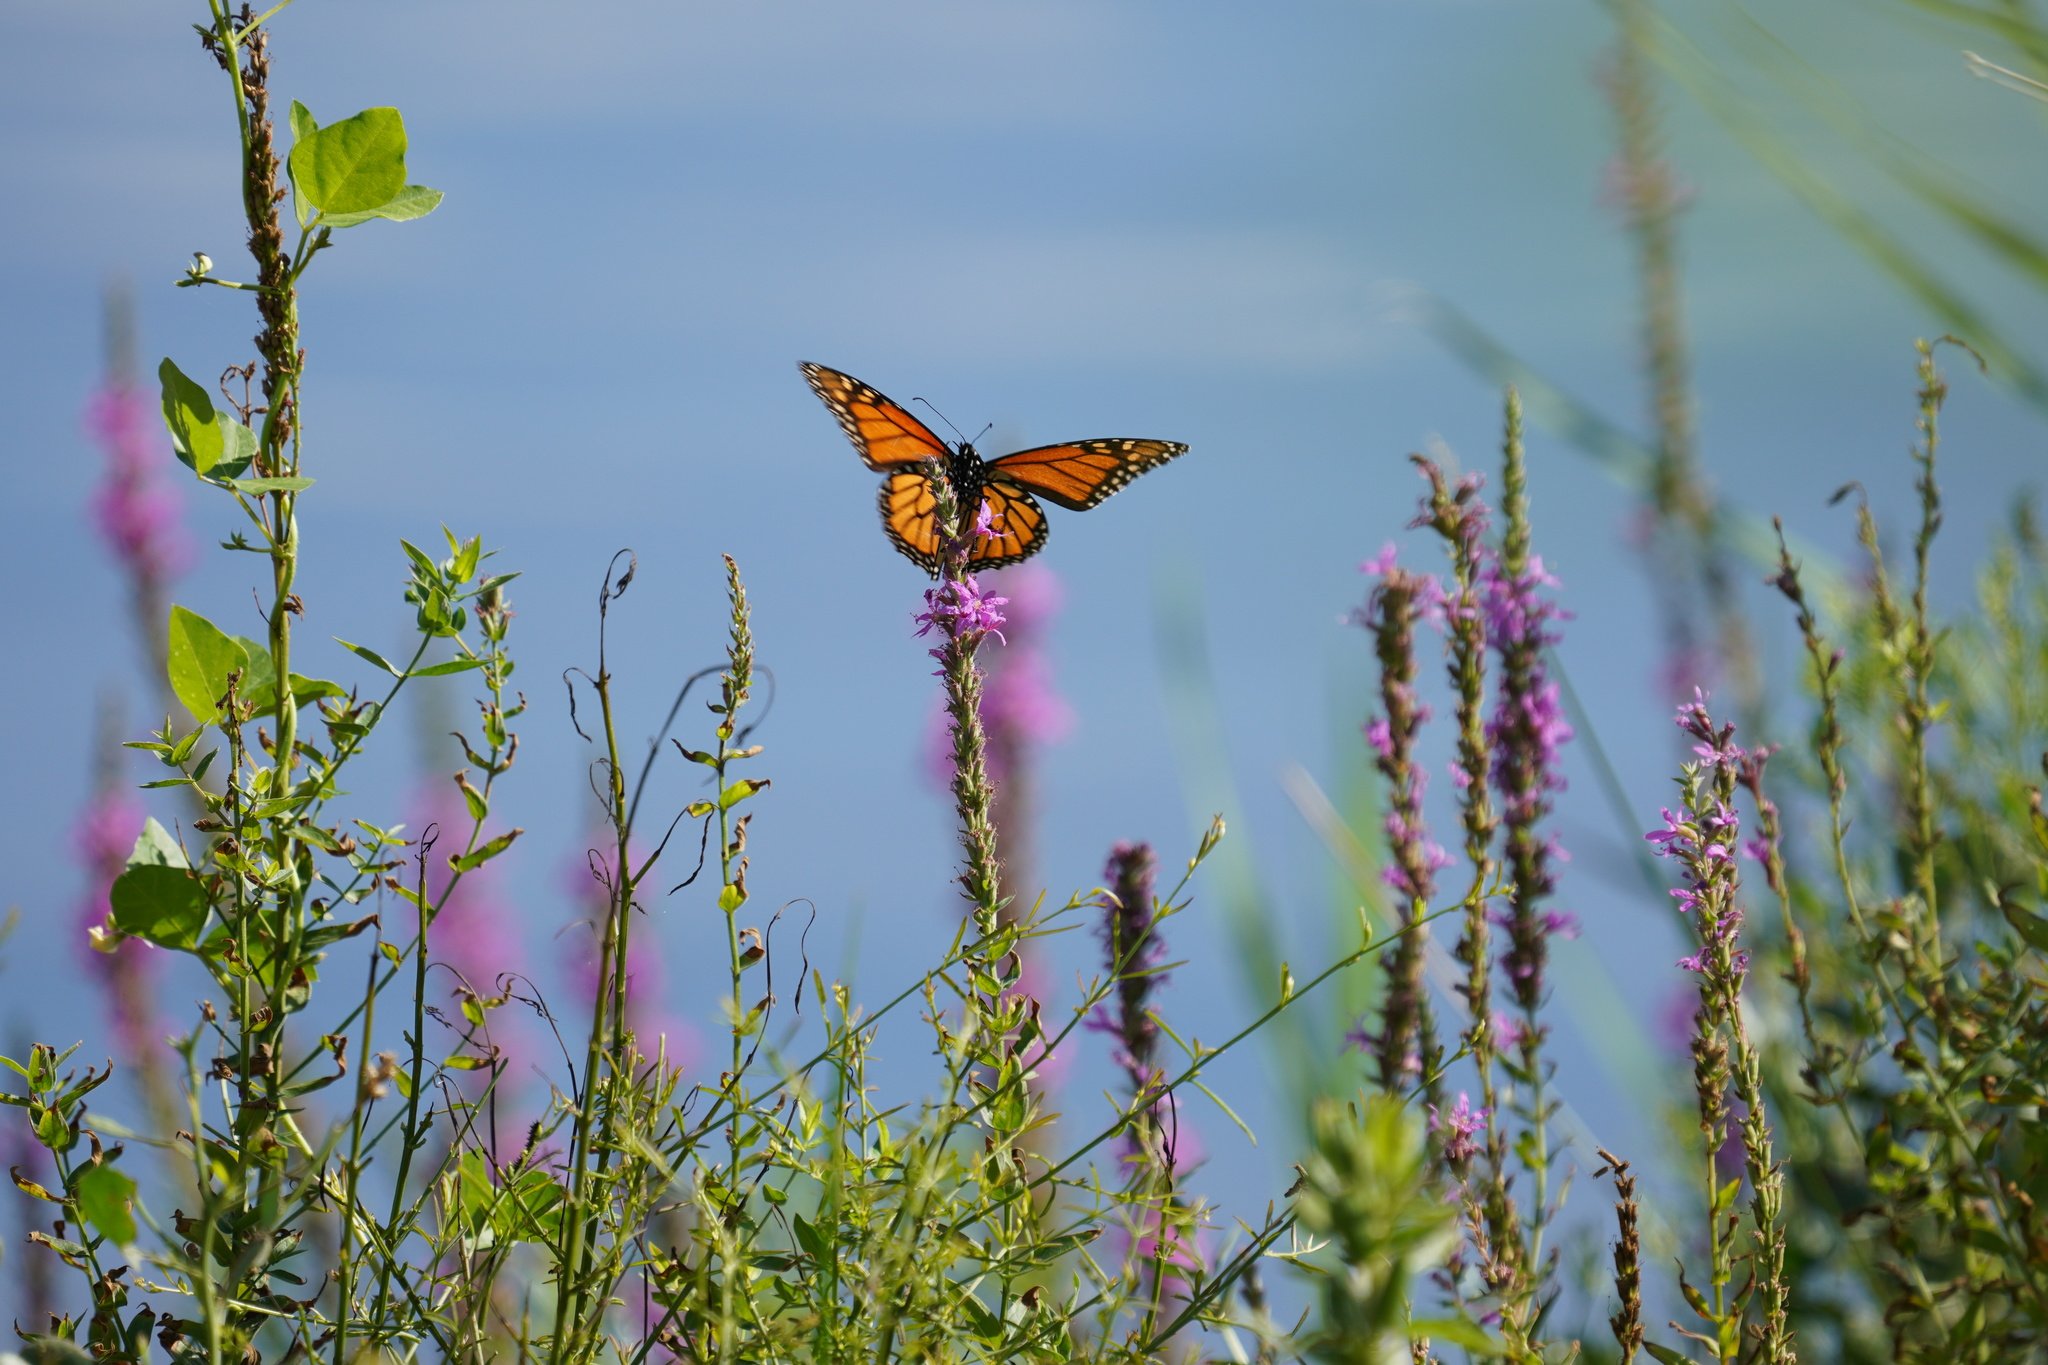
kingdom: Animalia
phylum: Arthropoda
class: Insecta
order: Lepidoptera
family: Nymphalidae
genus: Danaus
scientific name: Danaus plexippus
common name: Monarch
